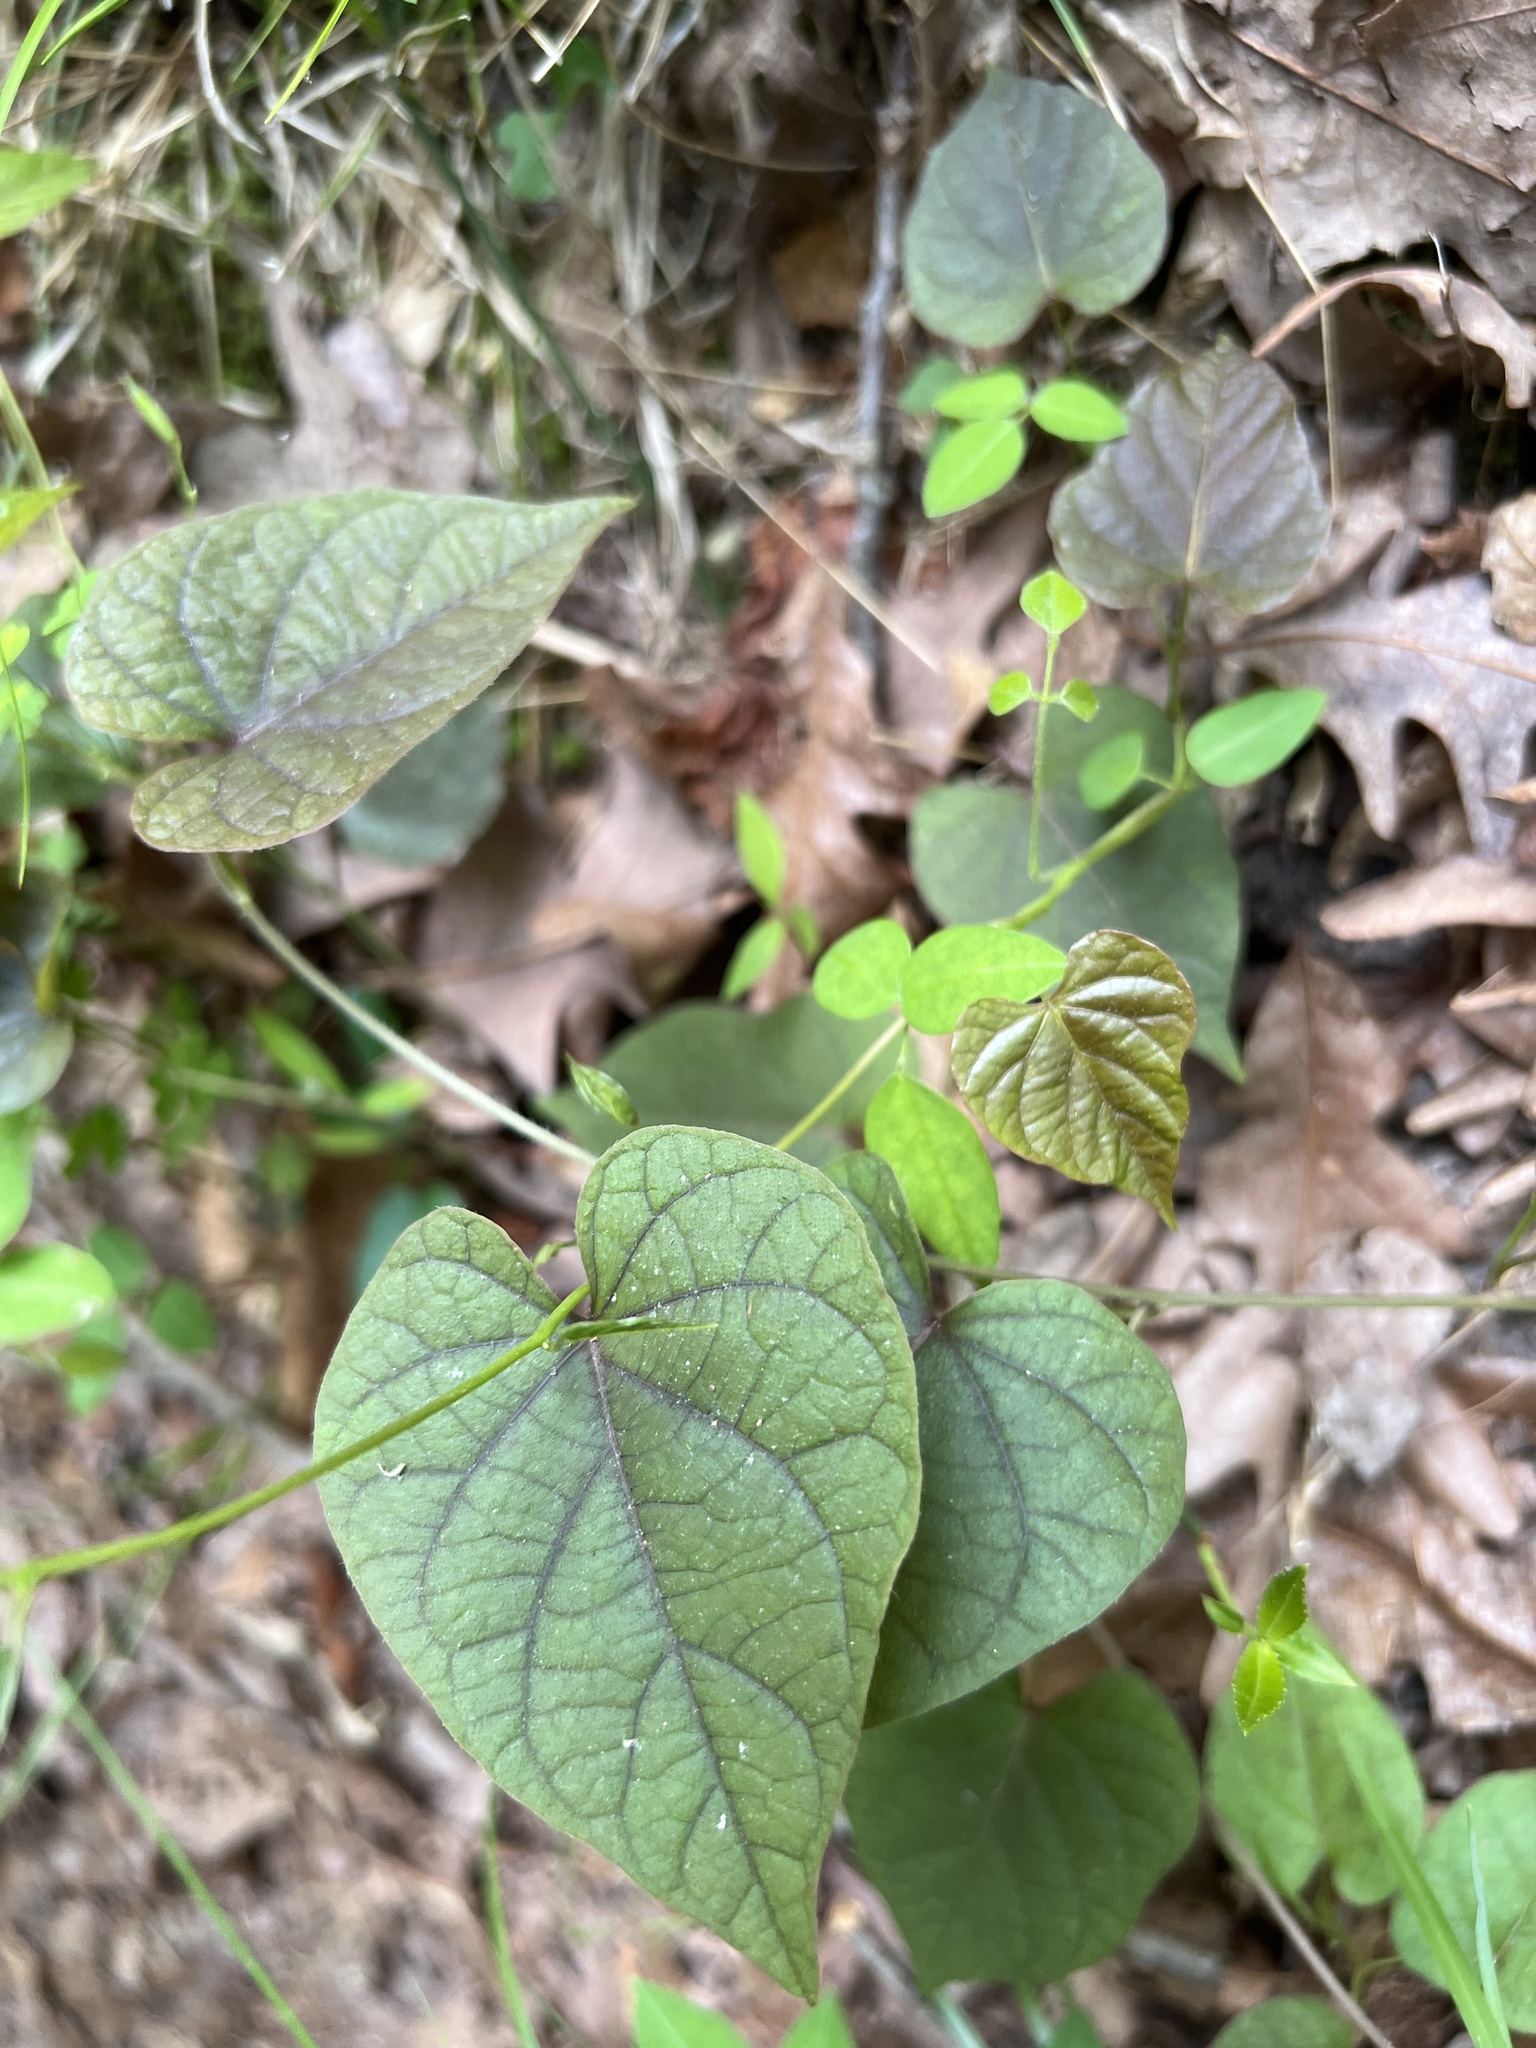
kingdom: Plantae
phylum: Tracheophyta
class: Magnoliopsida
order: Solanales
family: Convolvulaceae
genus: Ipomoea
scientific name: Ipomoea pandurata
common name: Man-of-the-earth
